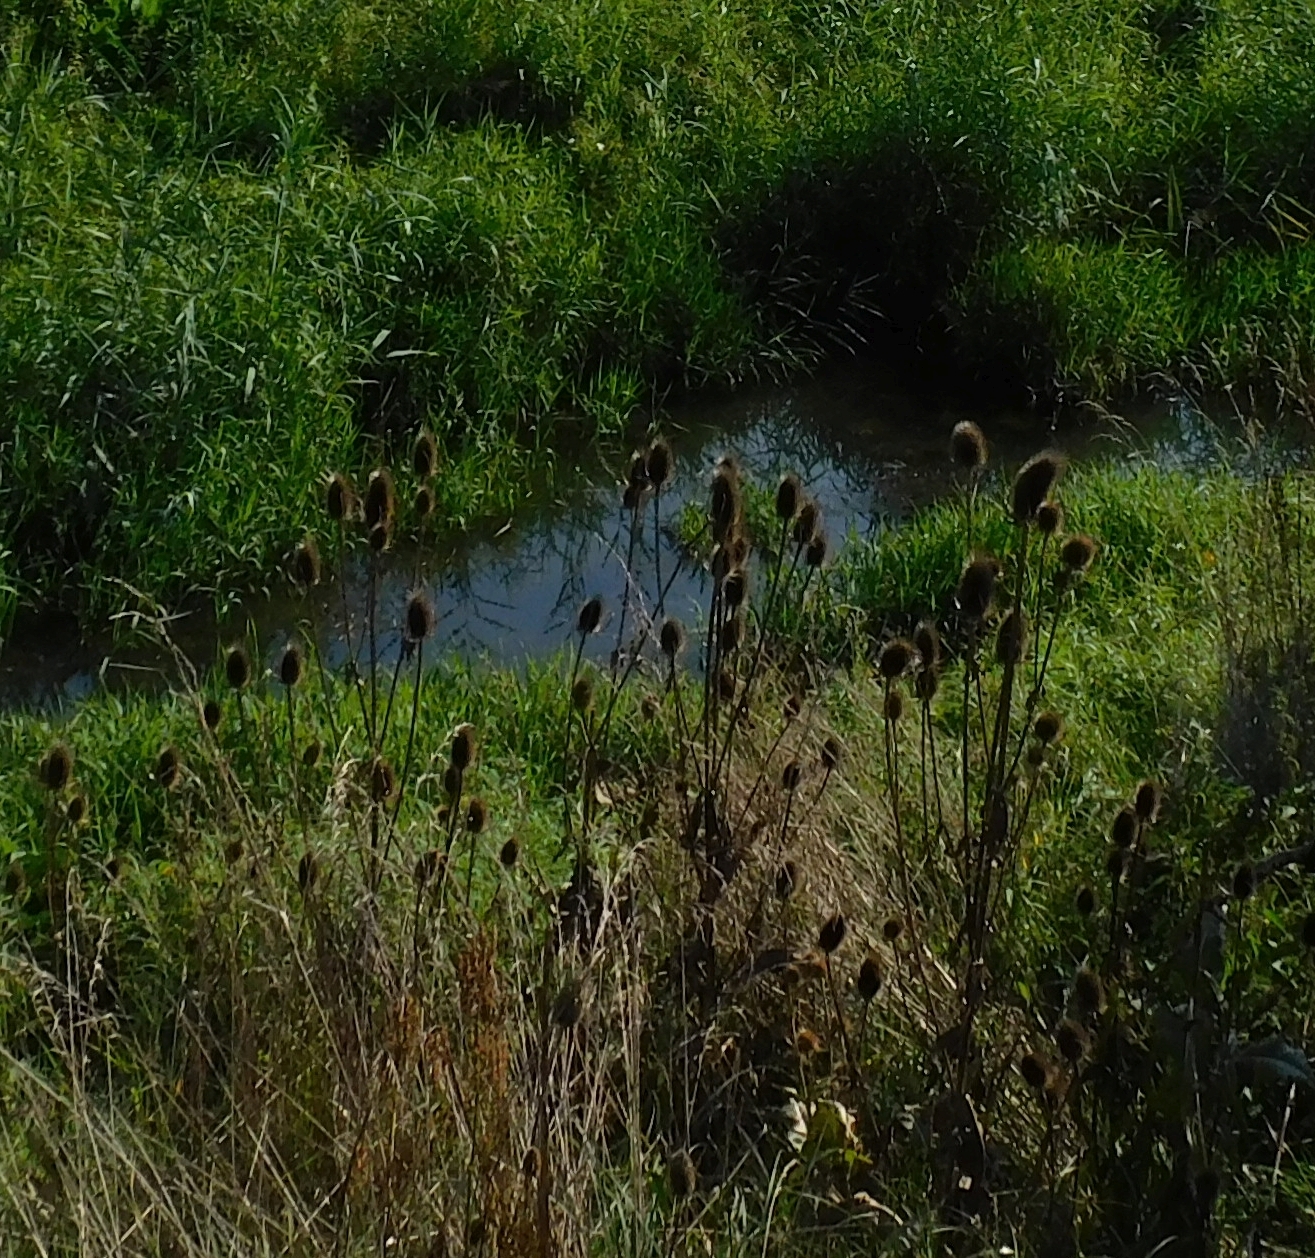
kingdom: Plantae
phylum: Tracheophyta
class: Magnoliopsida
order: Dipsacales
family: Caprifoliaceae
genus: Dipsacus
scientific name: Dipsacus fullonum
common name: Teasel
